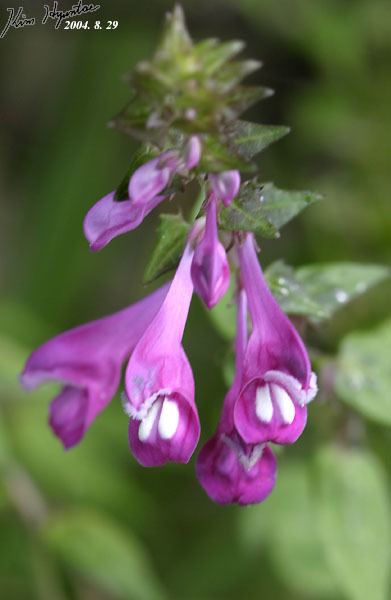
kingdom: Plantae
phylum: Tracheophyta
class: Magnoliopsida
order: Lamiales
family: Orobanchaceae
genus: Melampyrum
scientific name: Melampyrum roseum
